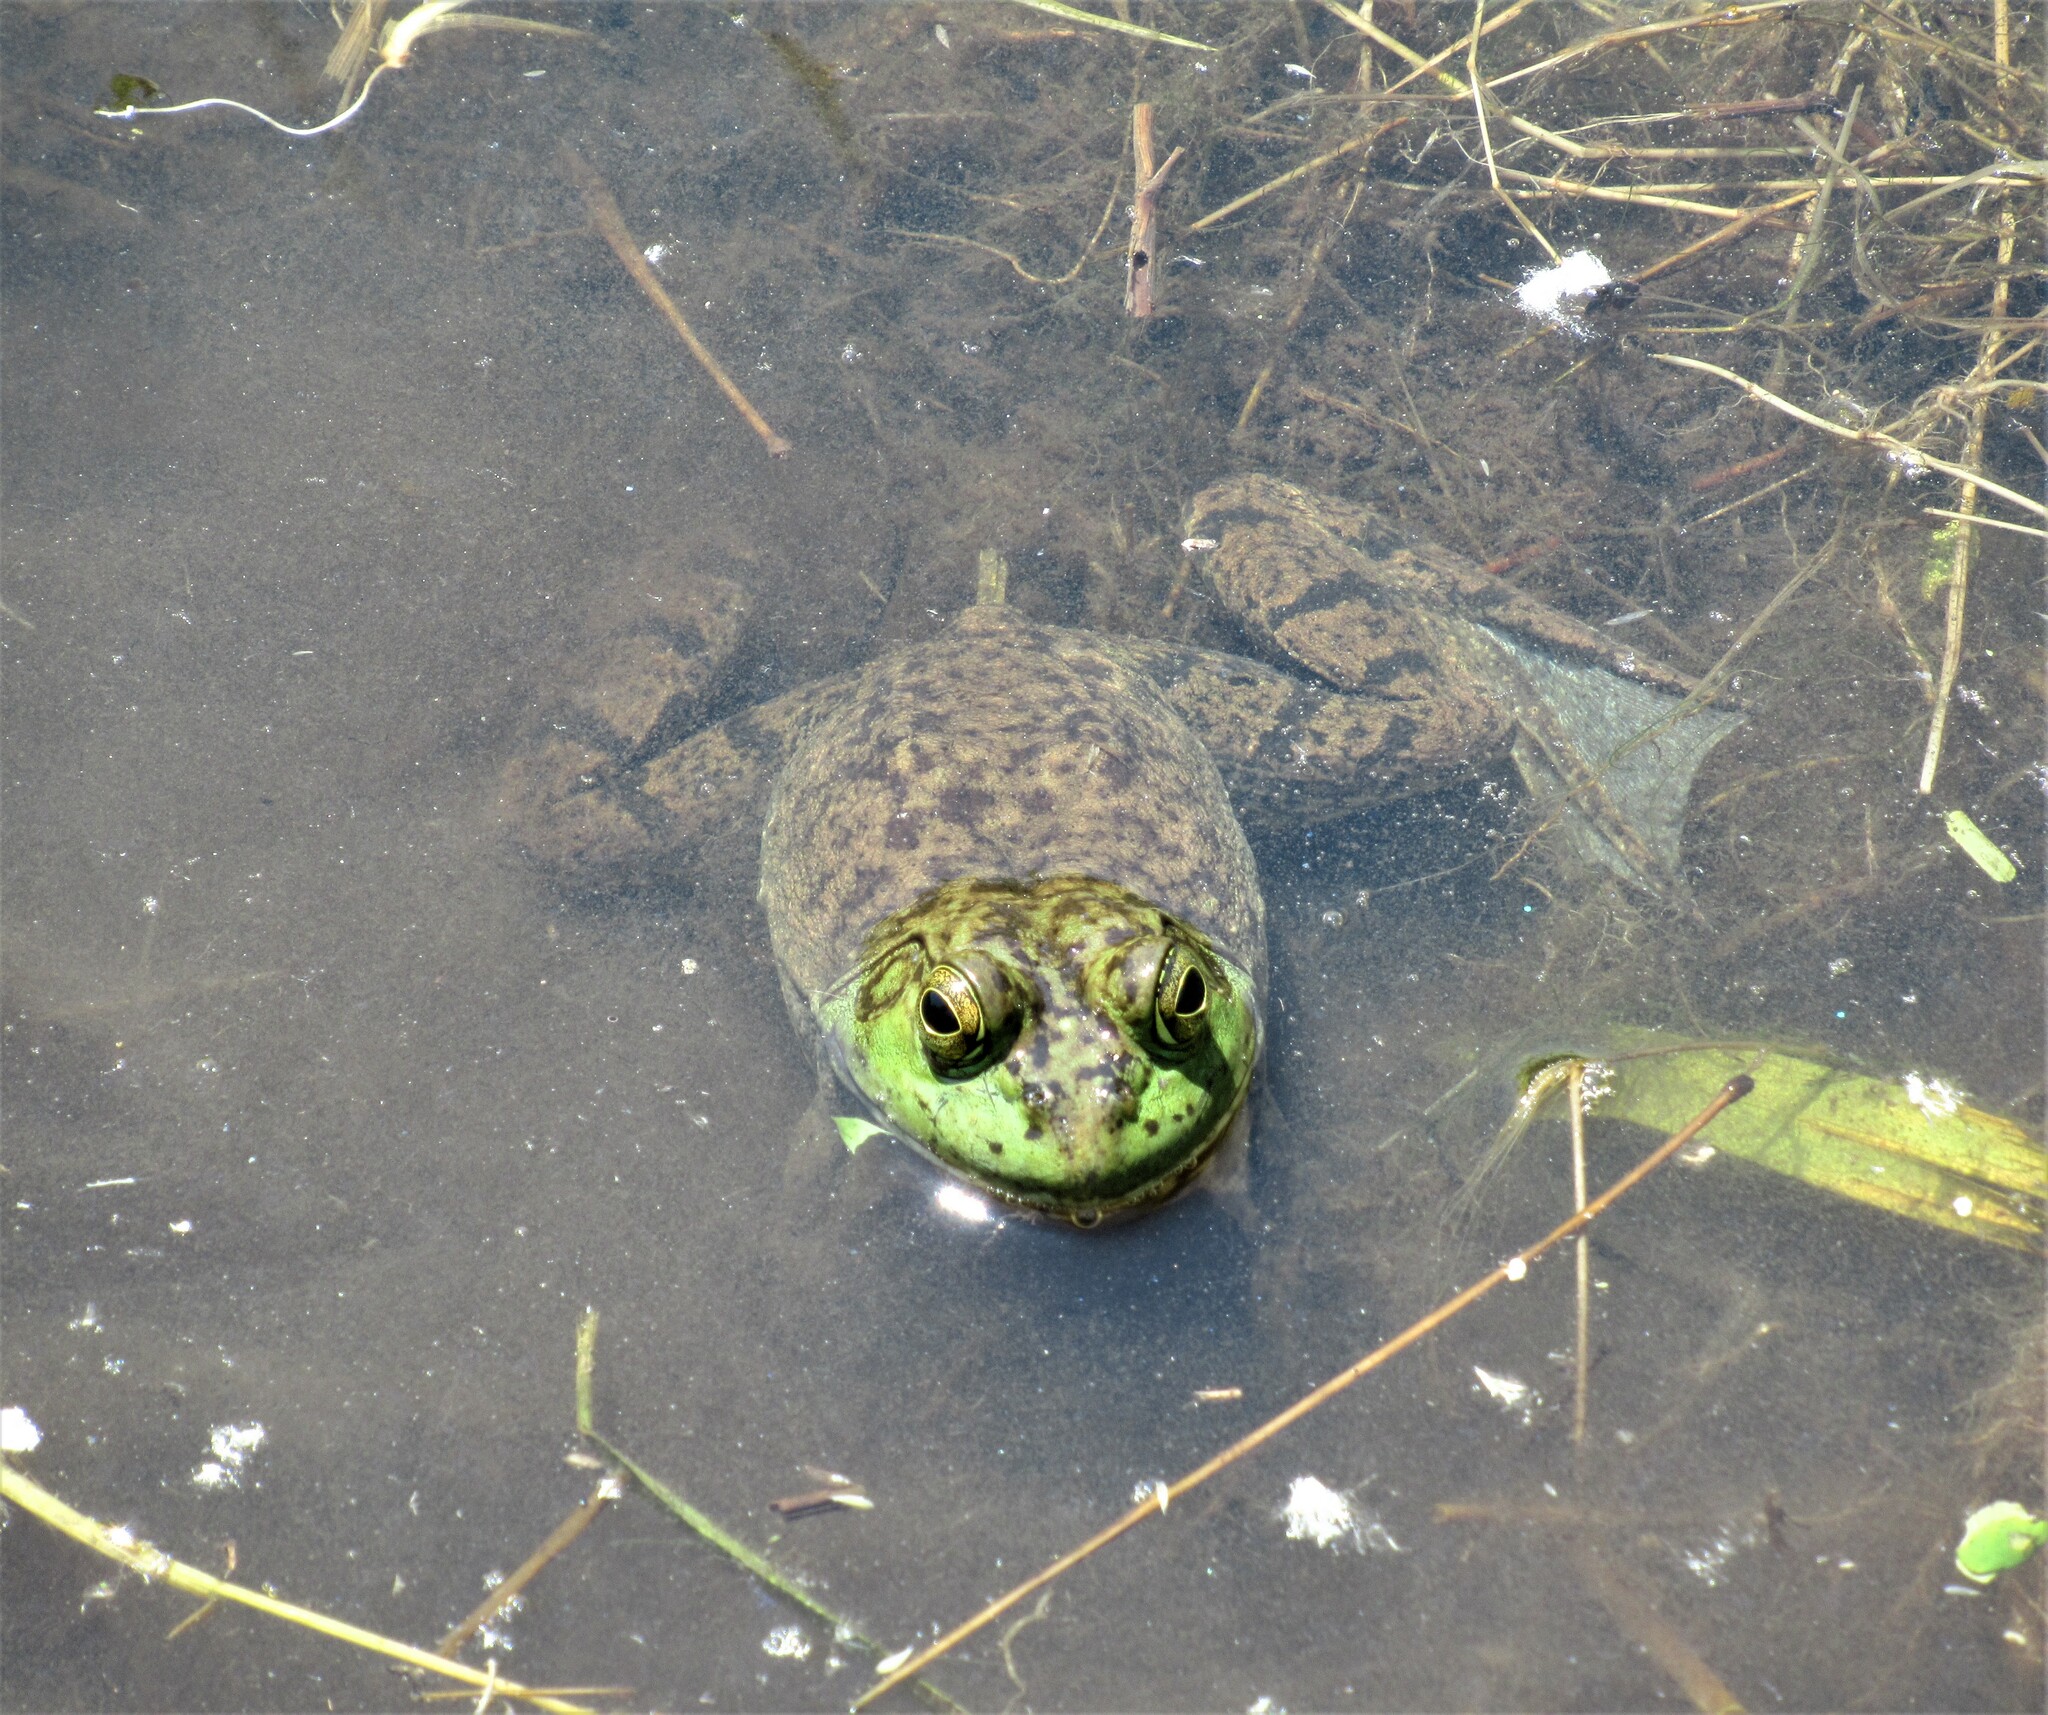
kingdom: Animalia
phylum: Chordata
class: Amphibia
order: Anura
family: Ranidae
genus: Lithobates
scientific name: Lithobates catesbeianus
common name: American bullfrog
